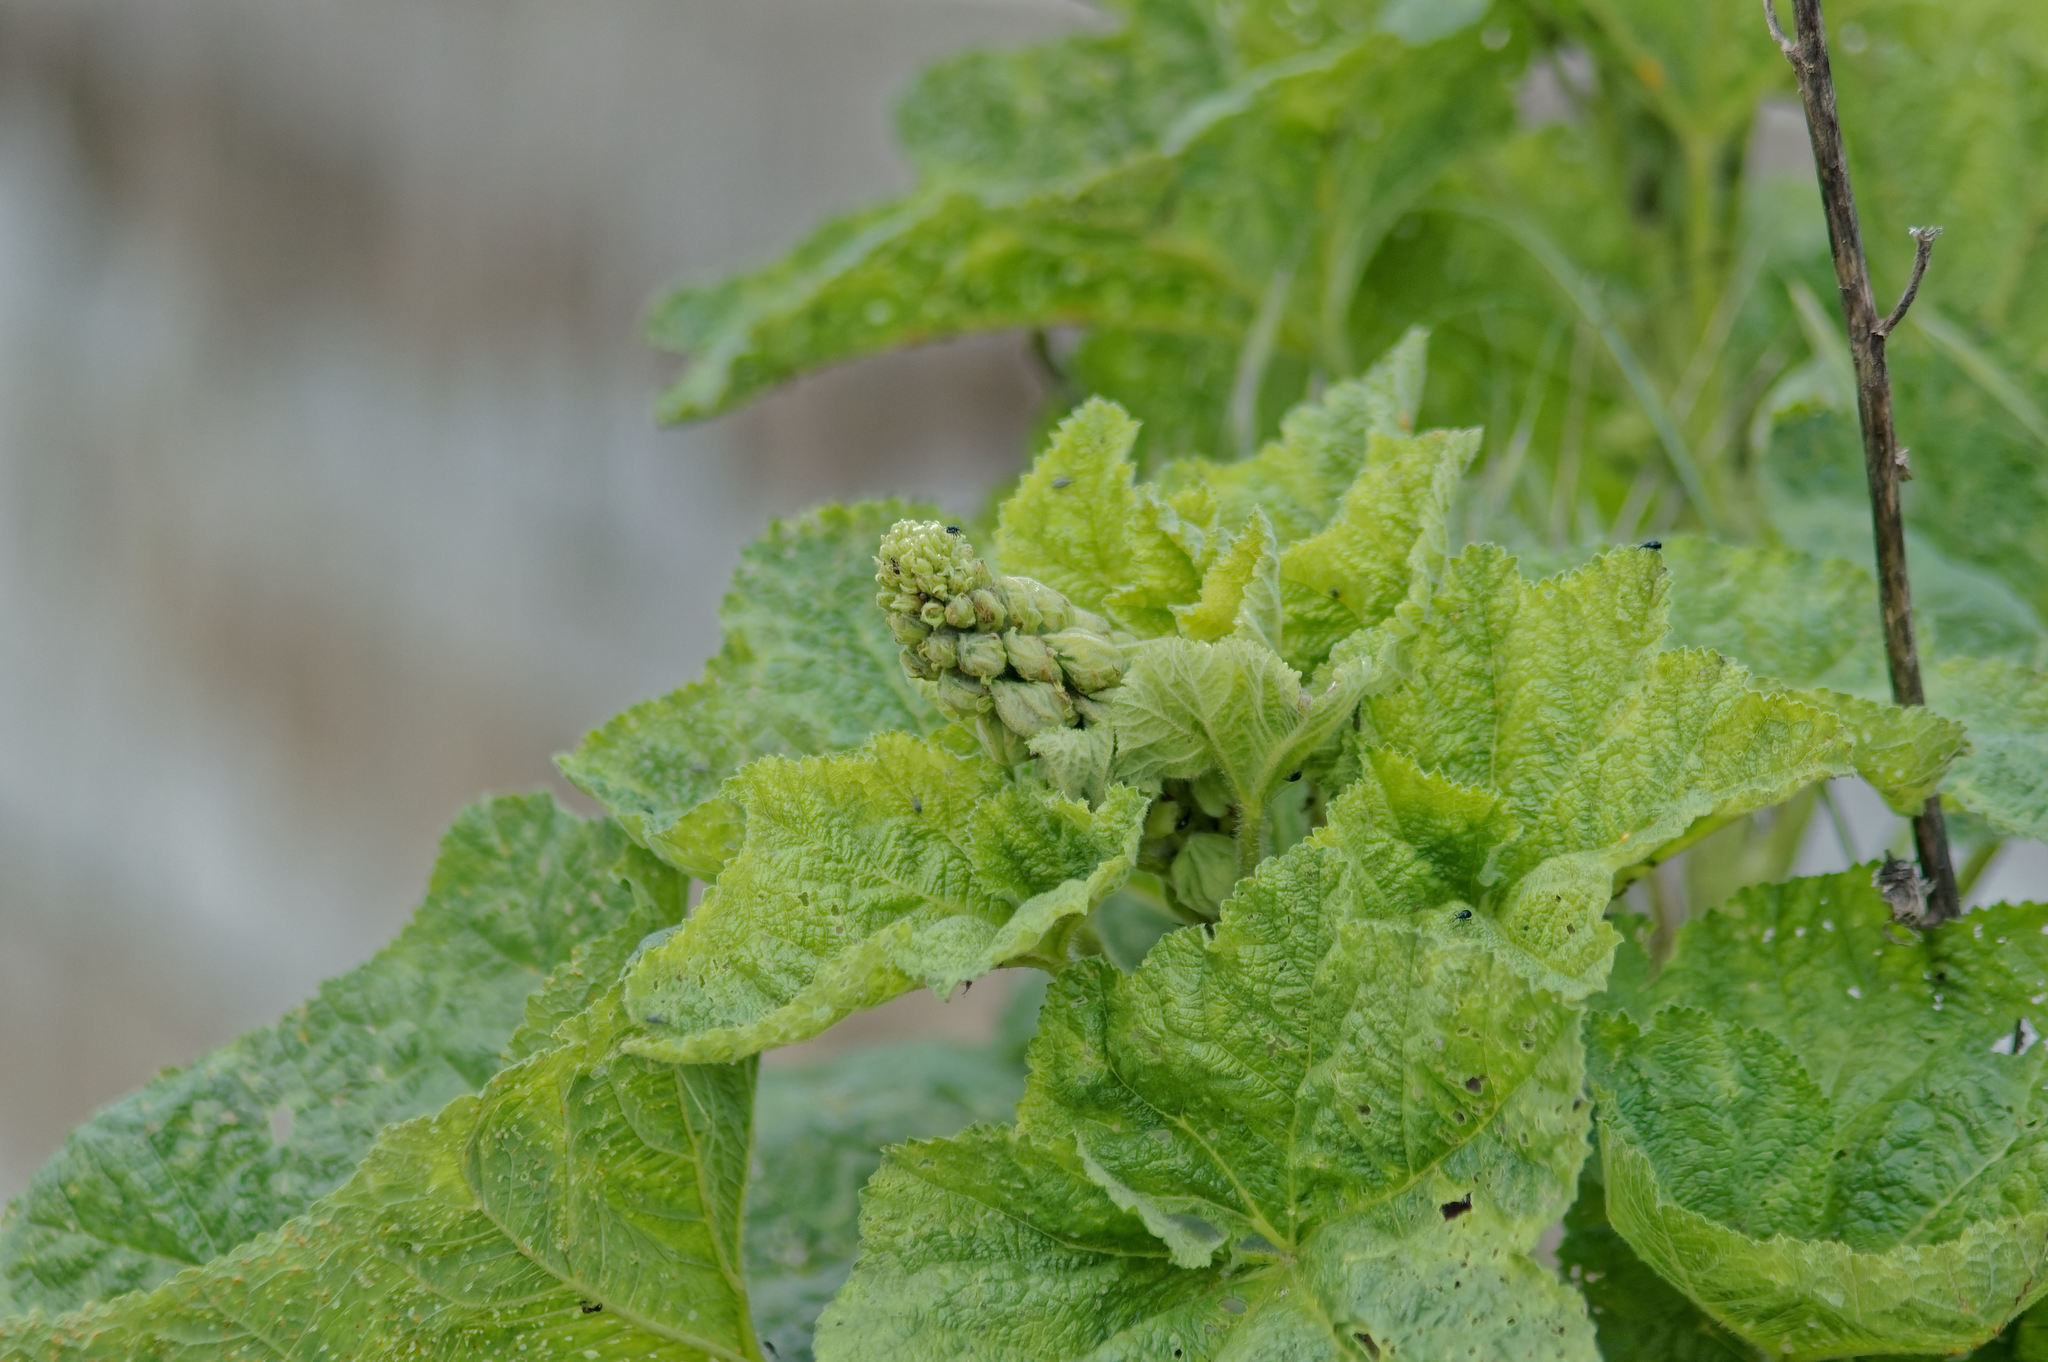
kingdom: Plantae
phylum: Tracheophyta
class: Magnoliopsida
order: Malvales
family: Malvaceae
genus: Alcea
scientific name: Alcea rosea
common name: Hollyhock
